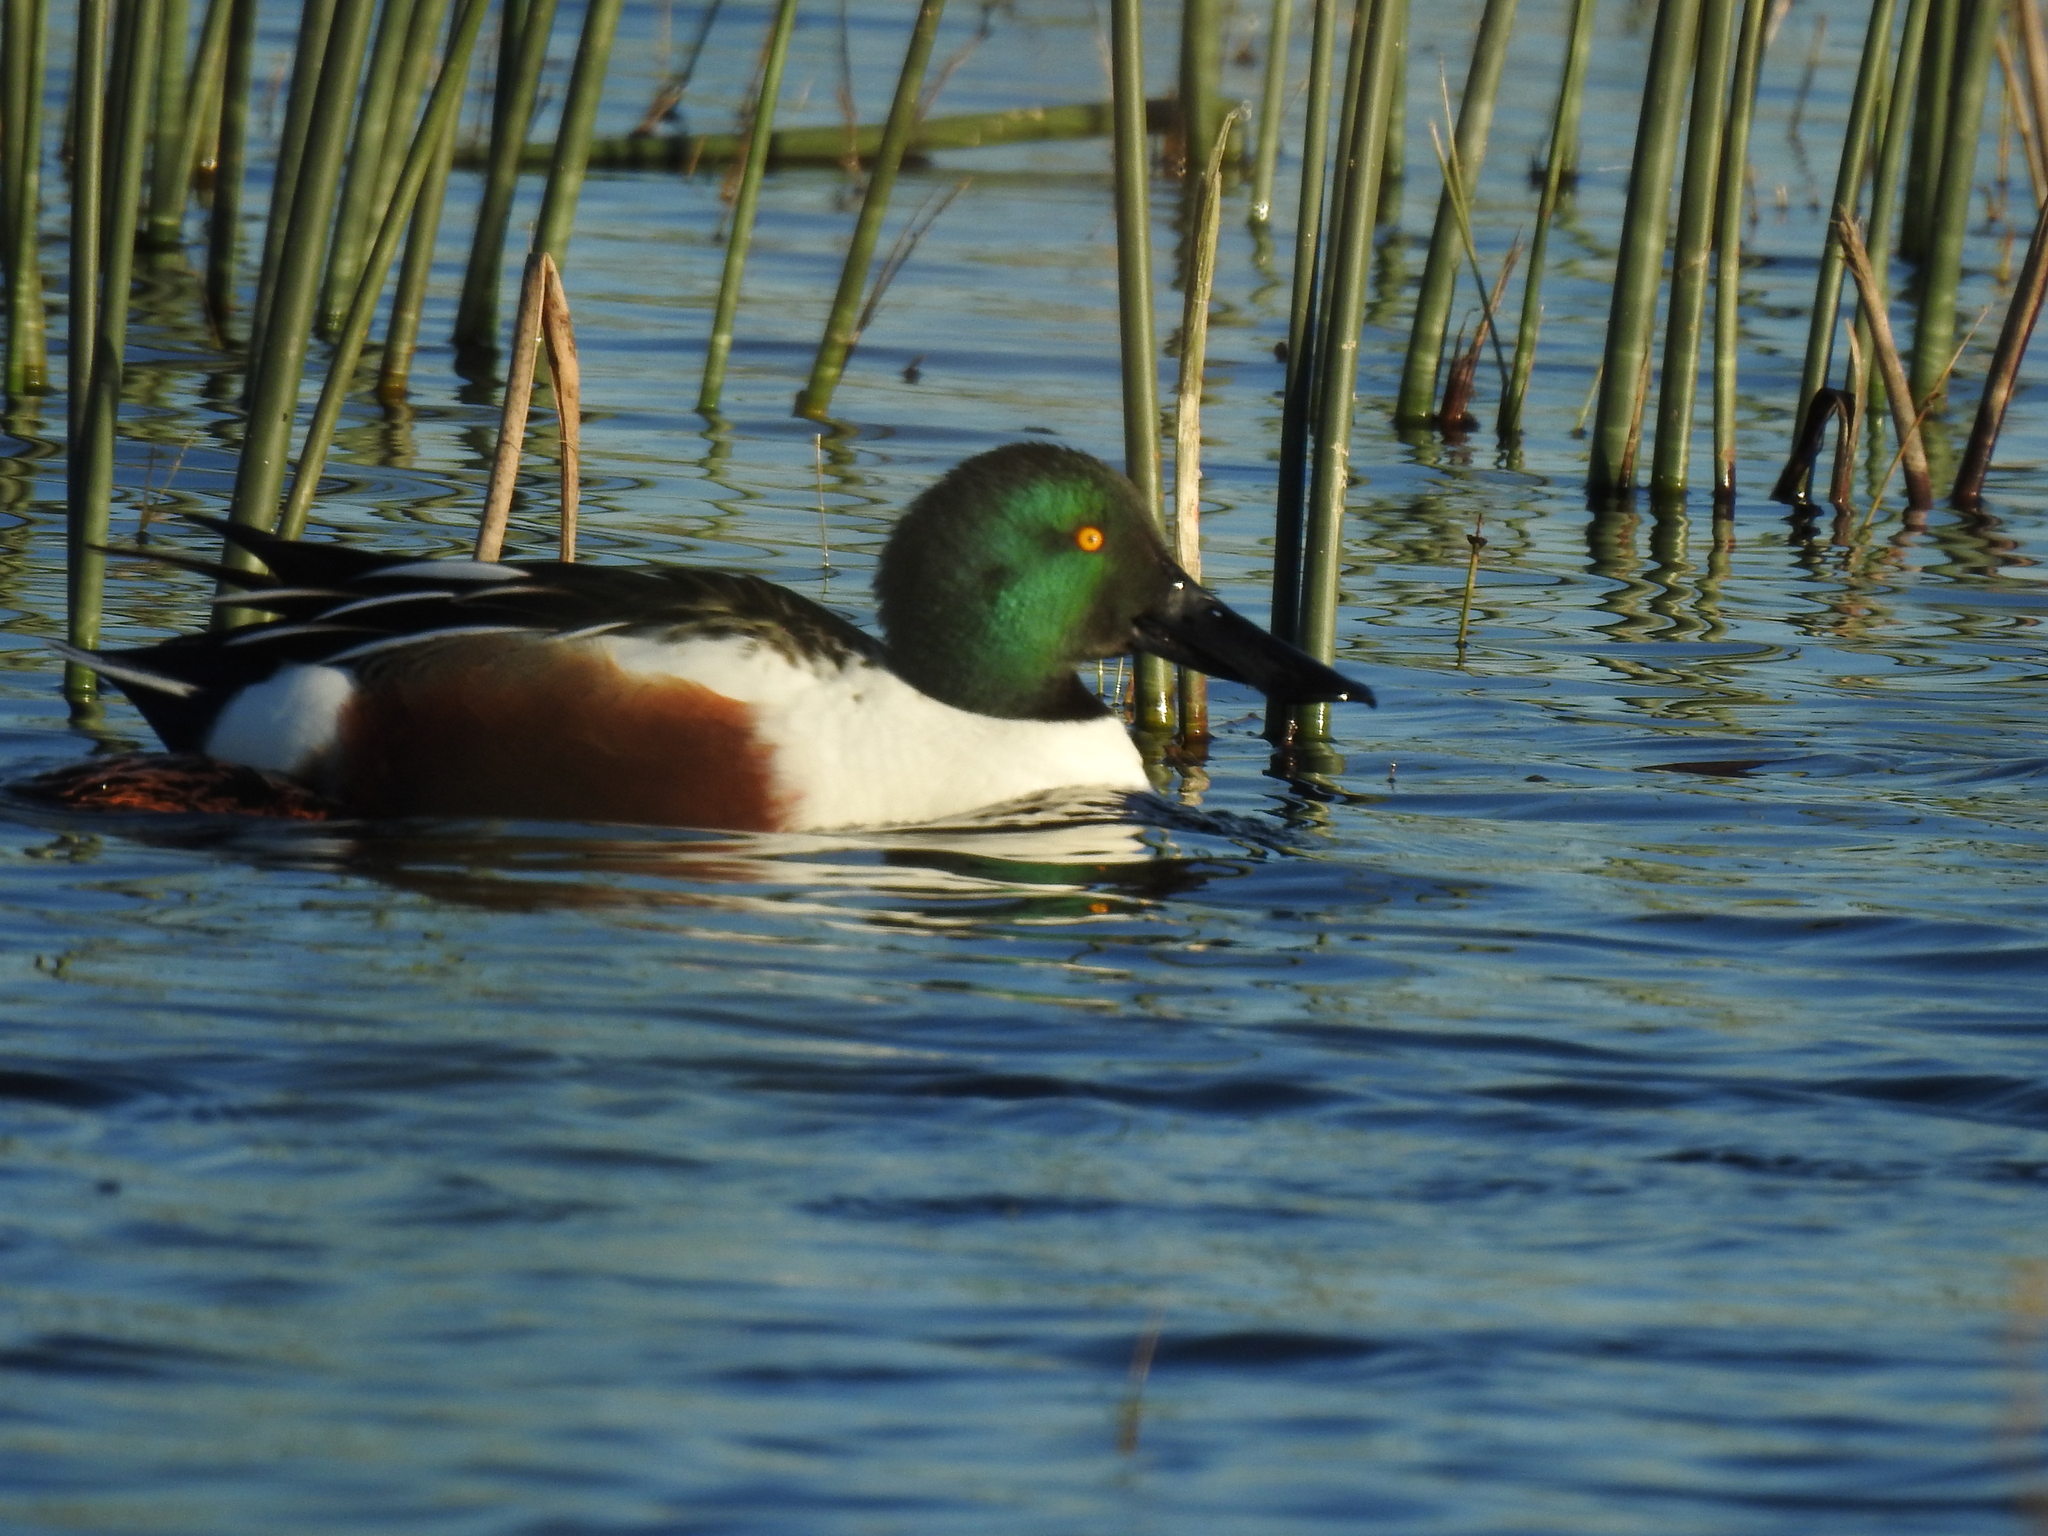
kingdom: Animalia
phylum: Chordata
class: Aves
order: Anseriformes
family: Anatidae
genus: Spatula
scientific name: Spatula clypeata
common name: Northern shoveler
